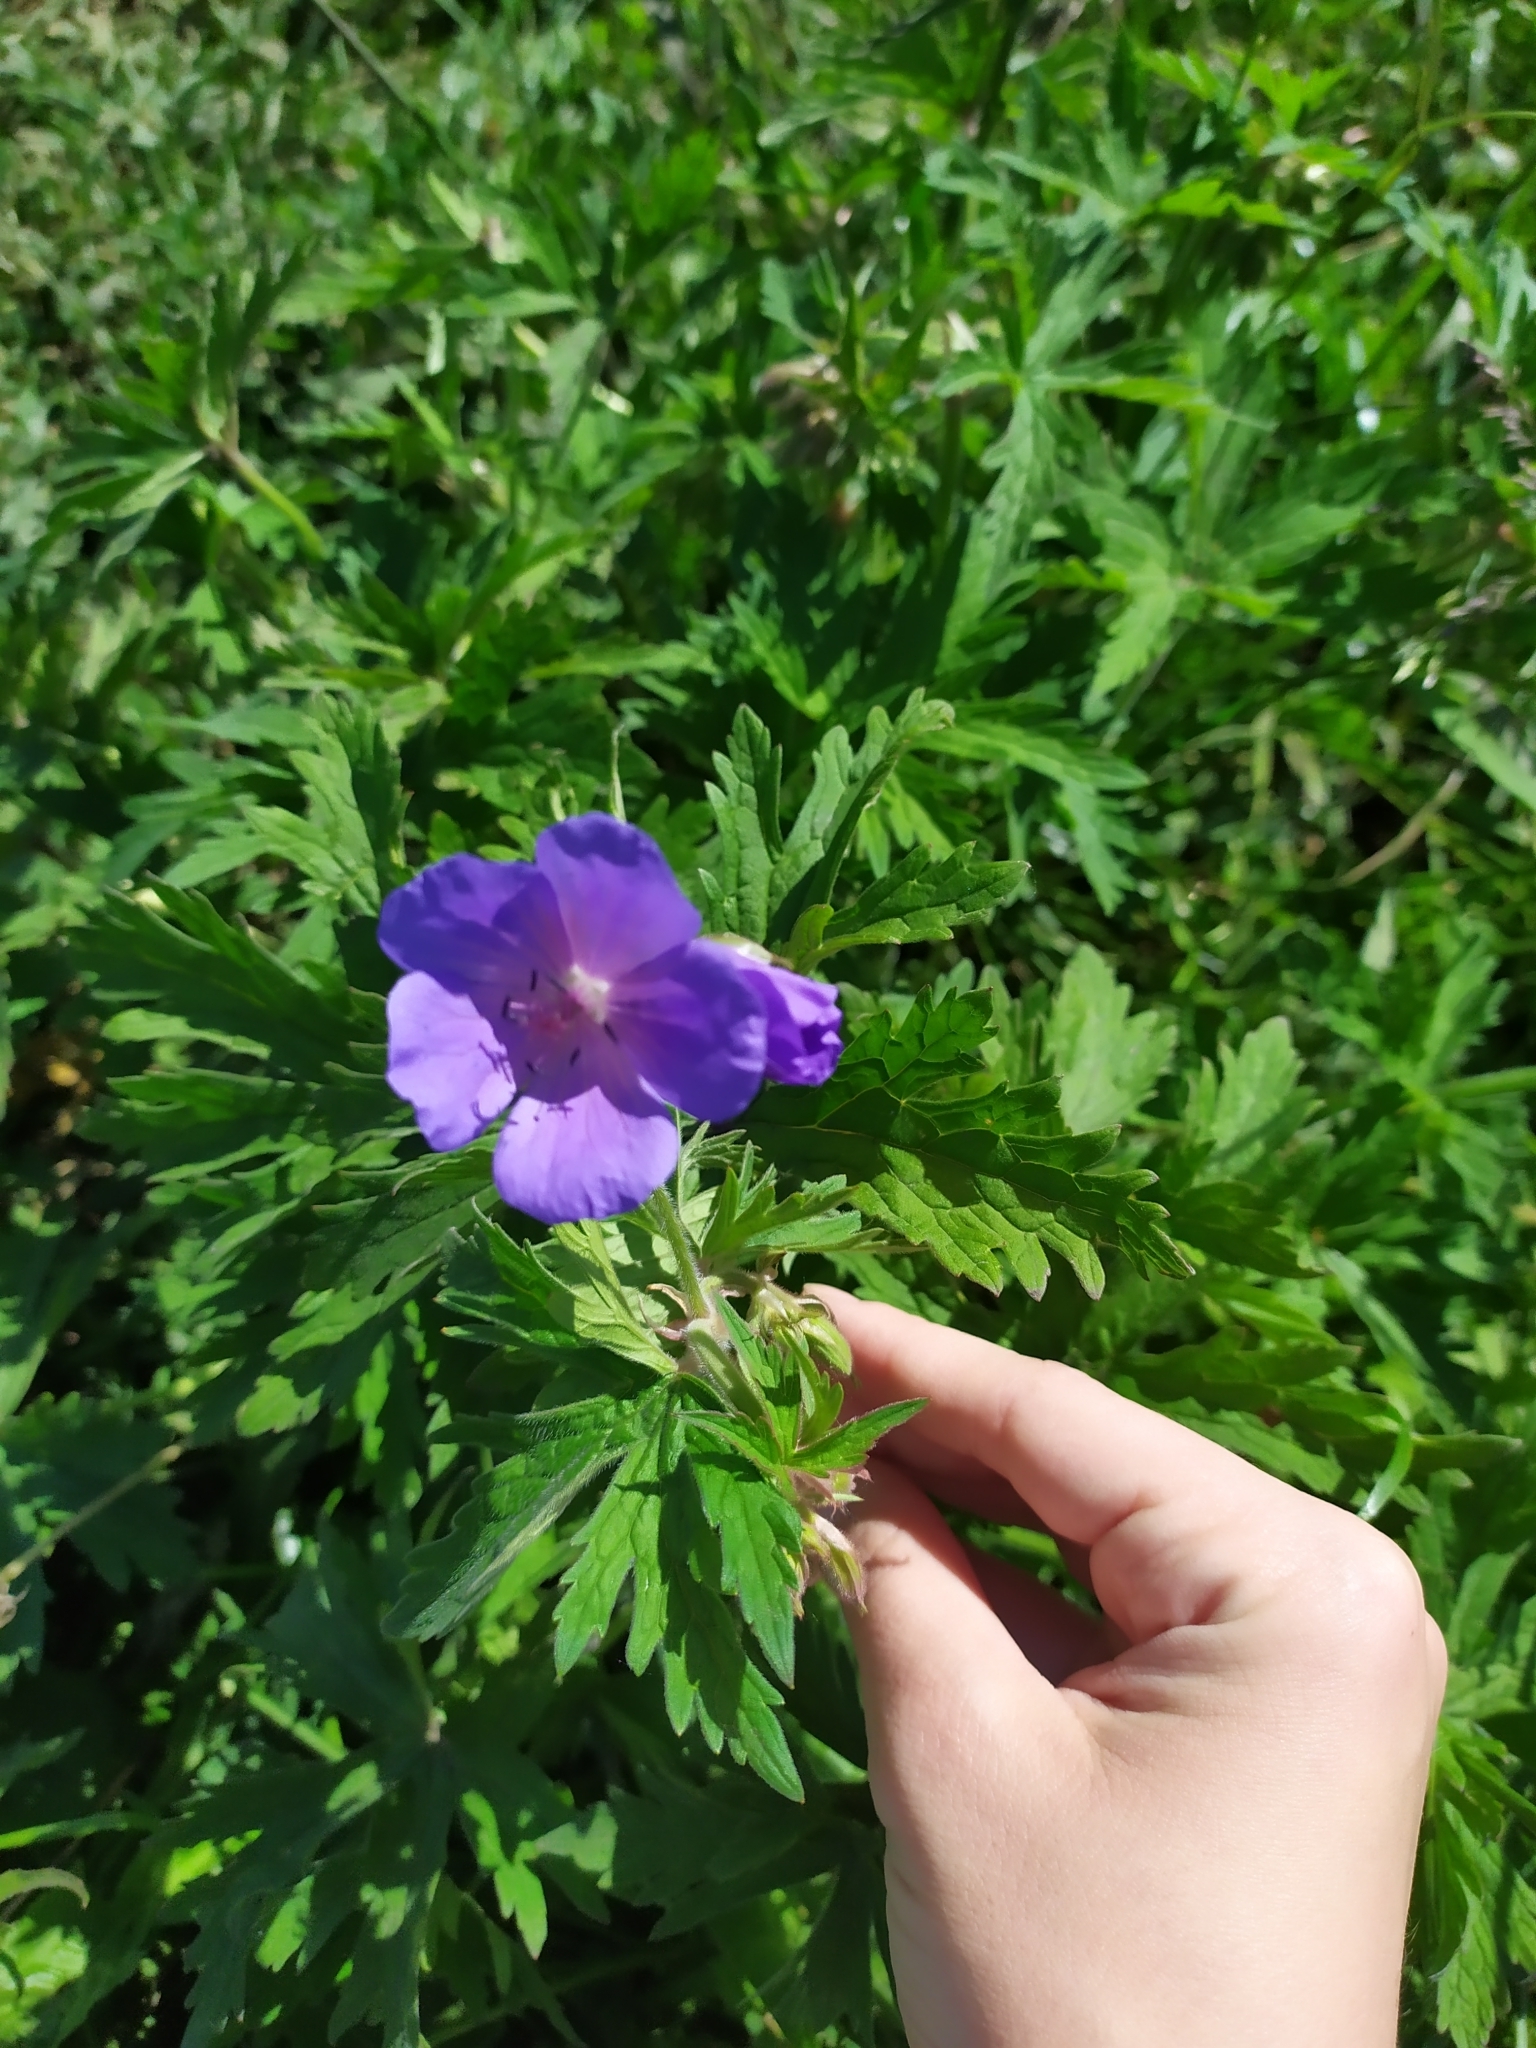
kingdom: Plantae
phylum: Tracheophyta
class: Magnoliopsida
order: Geraniales
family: Geraniaceae
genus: Geranium
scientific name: Geranium pratense
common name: Meadow crane's-bill
